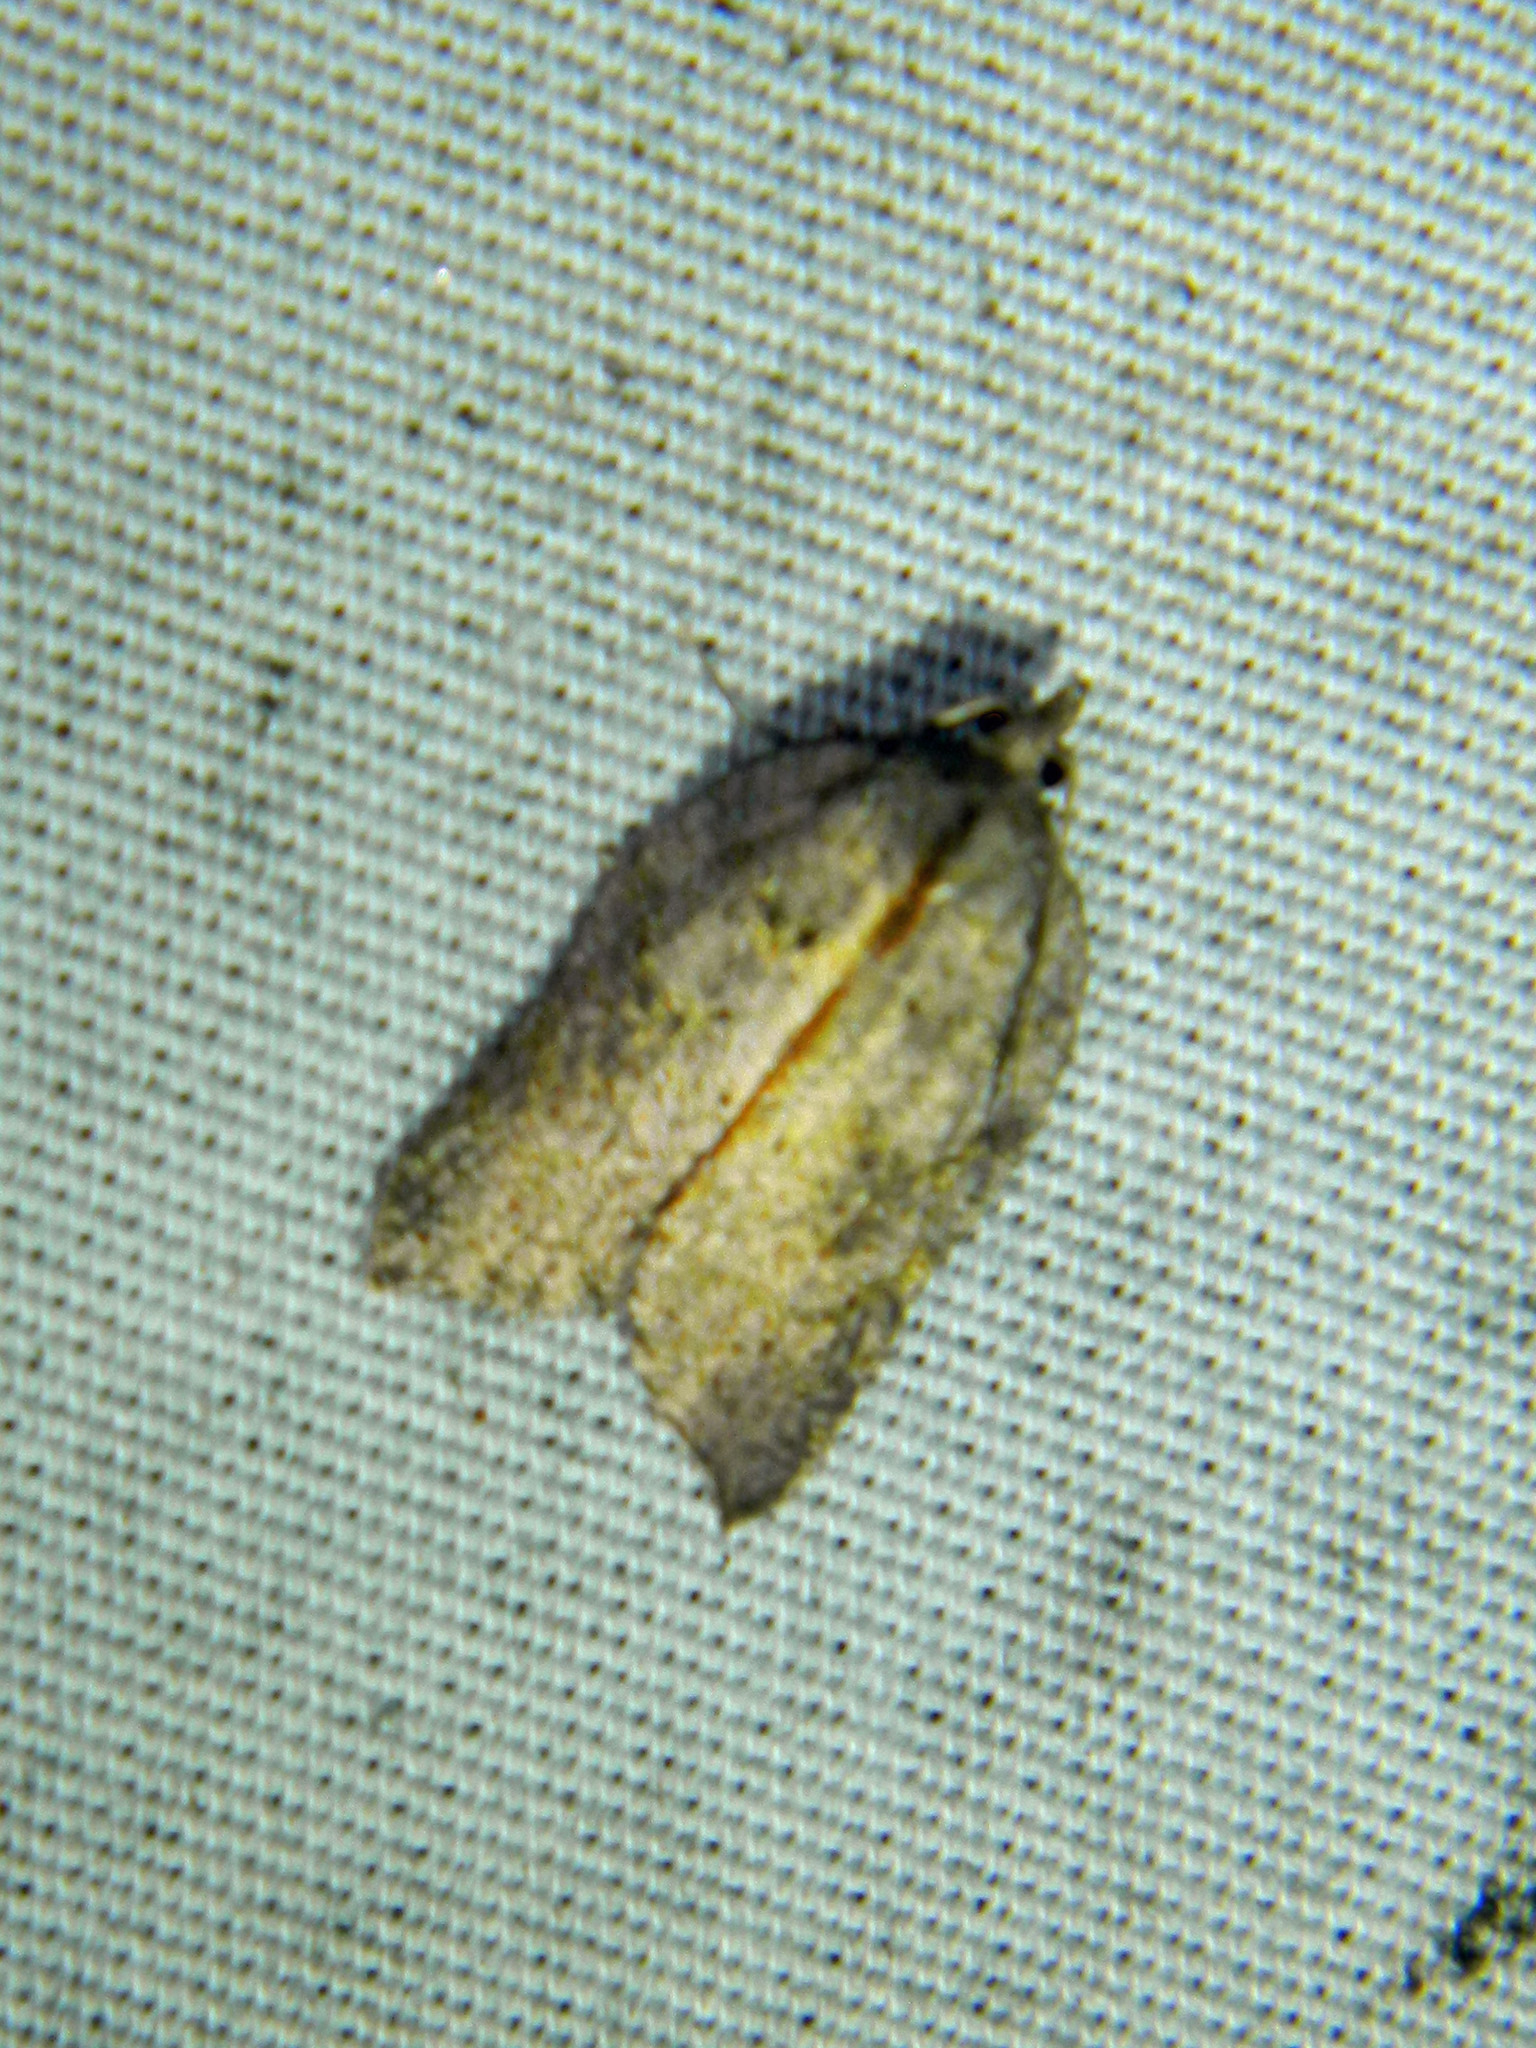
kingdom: Animalia
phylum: Arthropoda
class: Insecta
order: Lepidoptera
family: Tortricidae
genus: Acleris
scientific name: Acleris effractana
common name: Hook-winged tortrix moth
